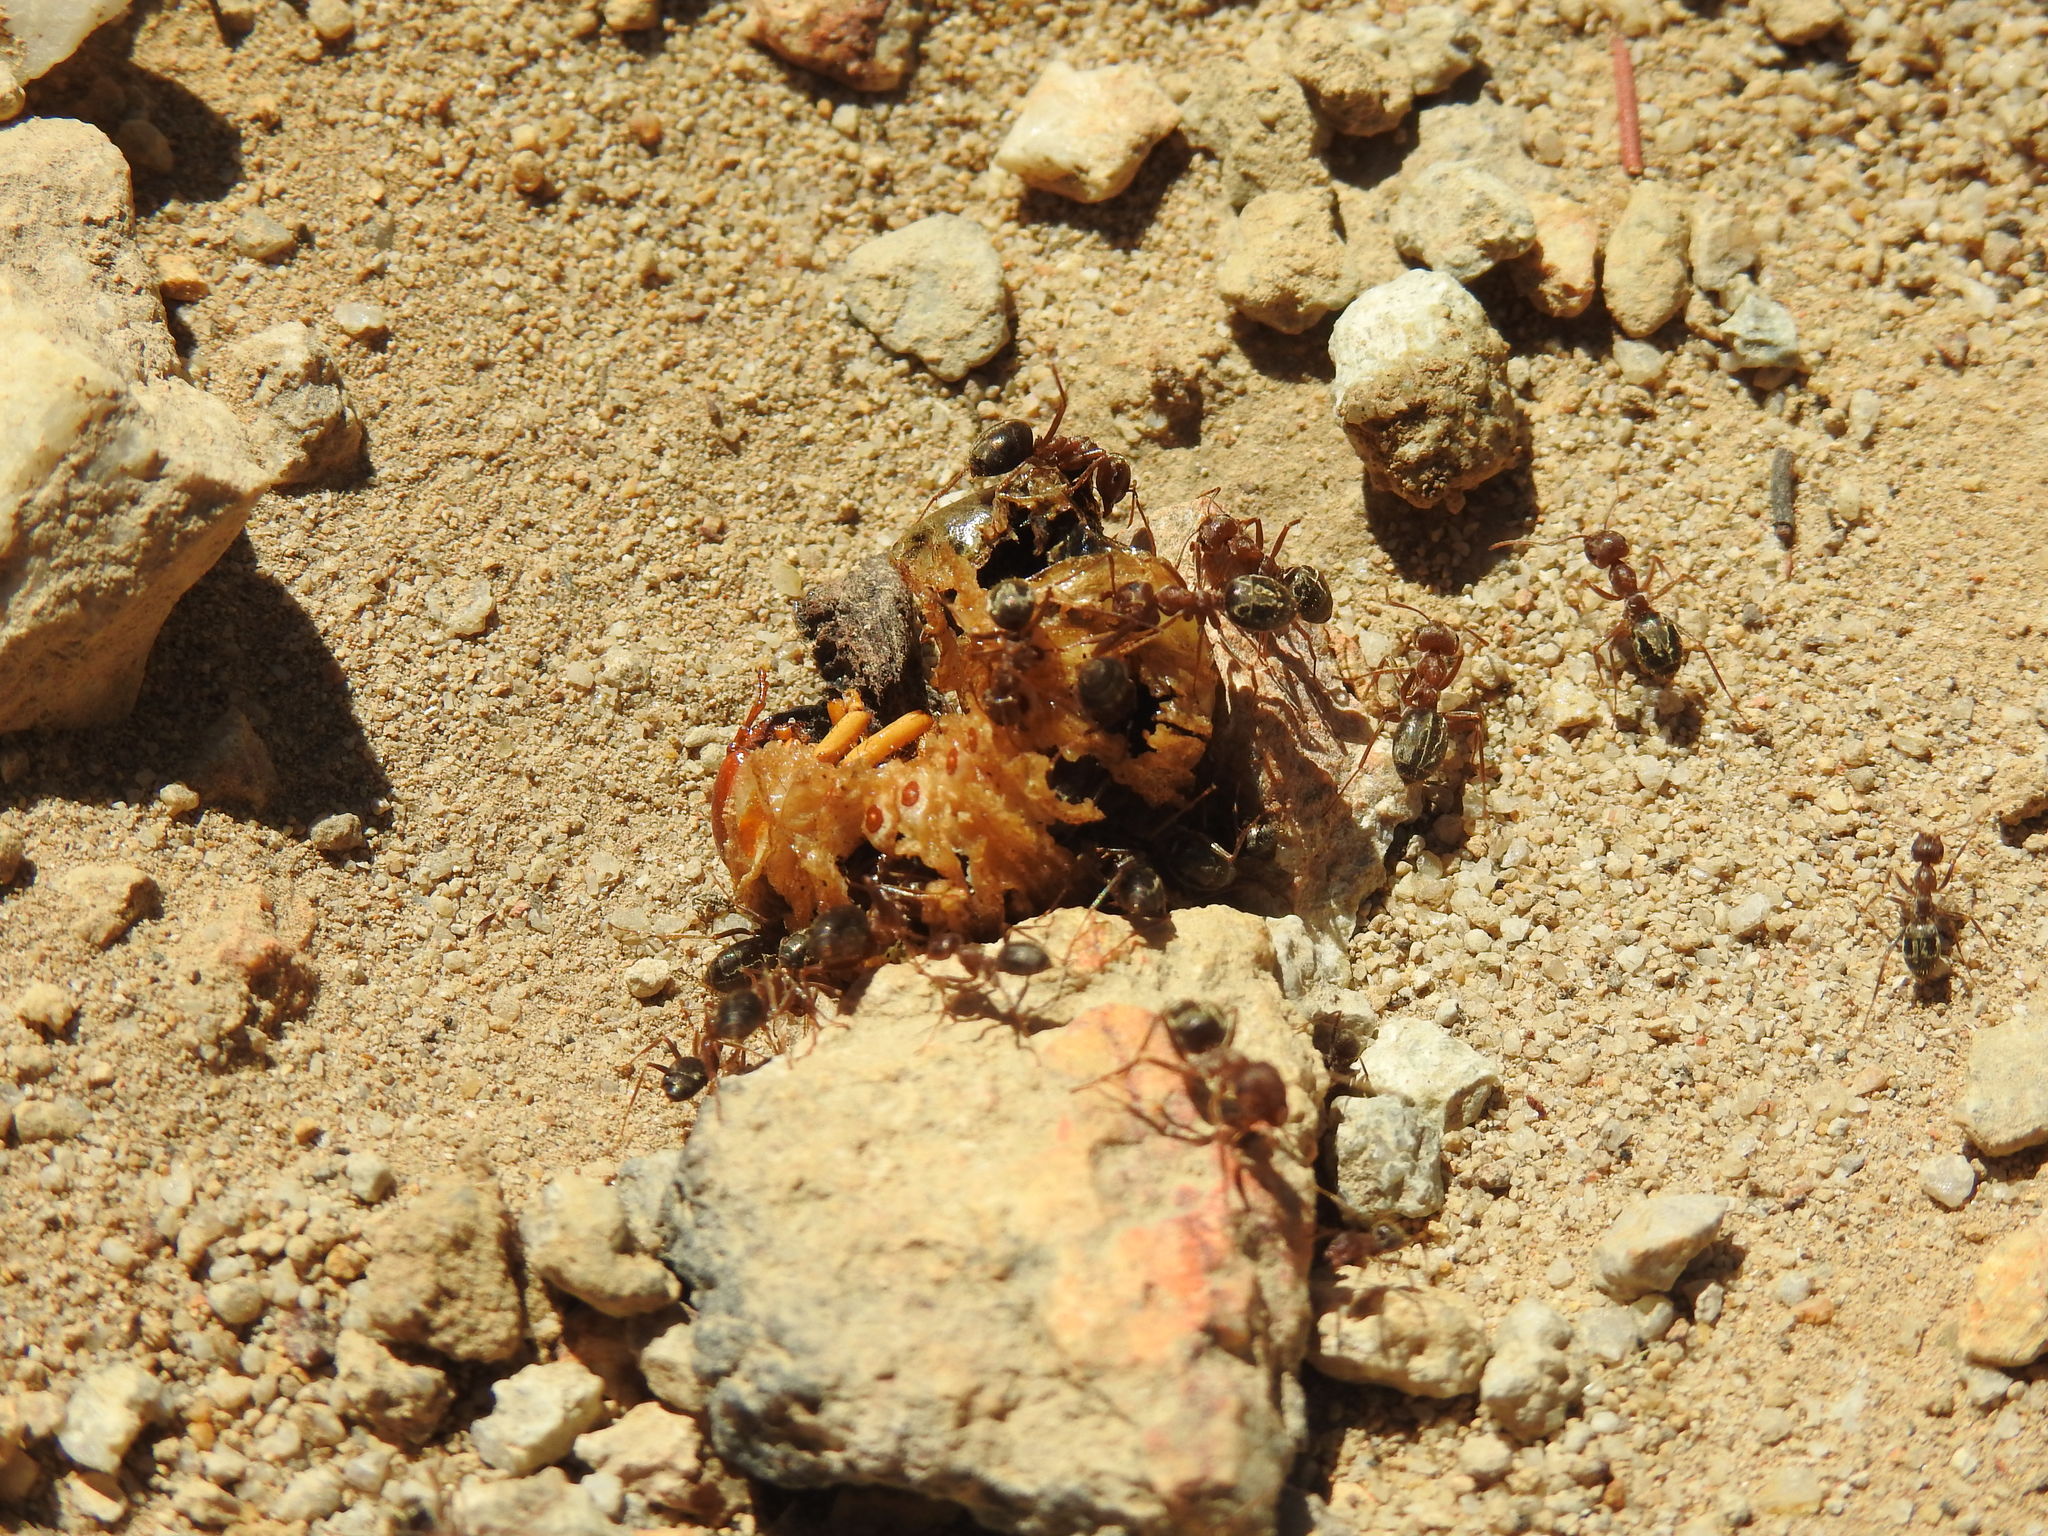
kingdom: Animalia
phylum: Arthropoda
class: Insecta
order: Hymenoptera
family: Formicidae
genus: Anoplolepis
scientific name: Anoplolepis custodiens
